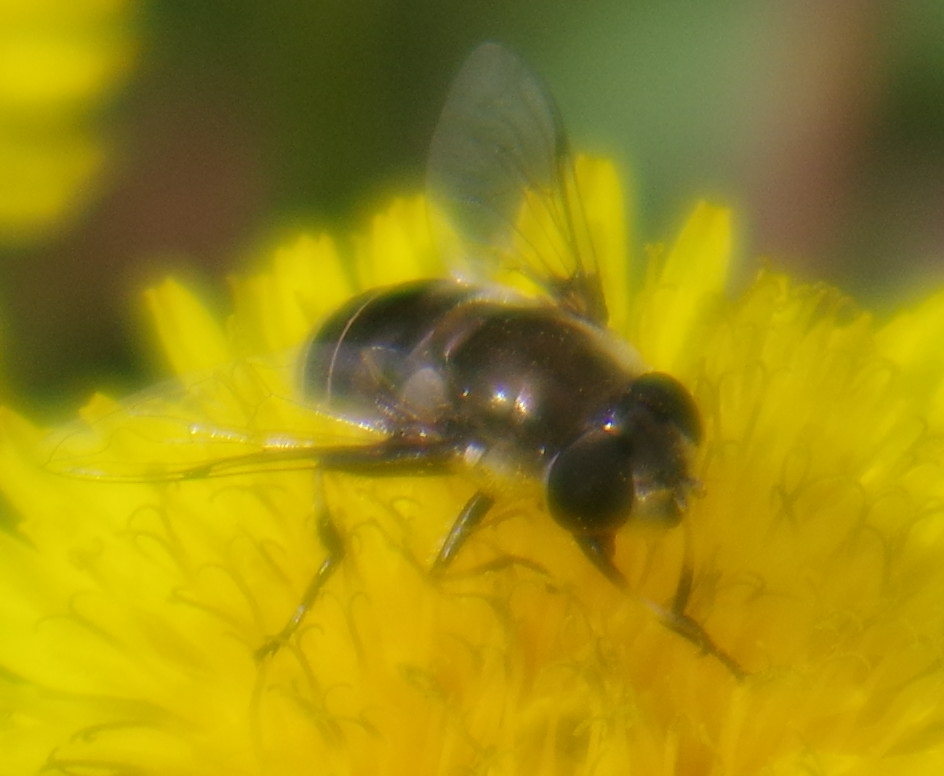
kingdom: Animalia
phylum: Arthropoda
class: Insecta
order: Diptera
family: Syrphidae
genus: Eristalis
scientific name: Eristalis dimidiata
